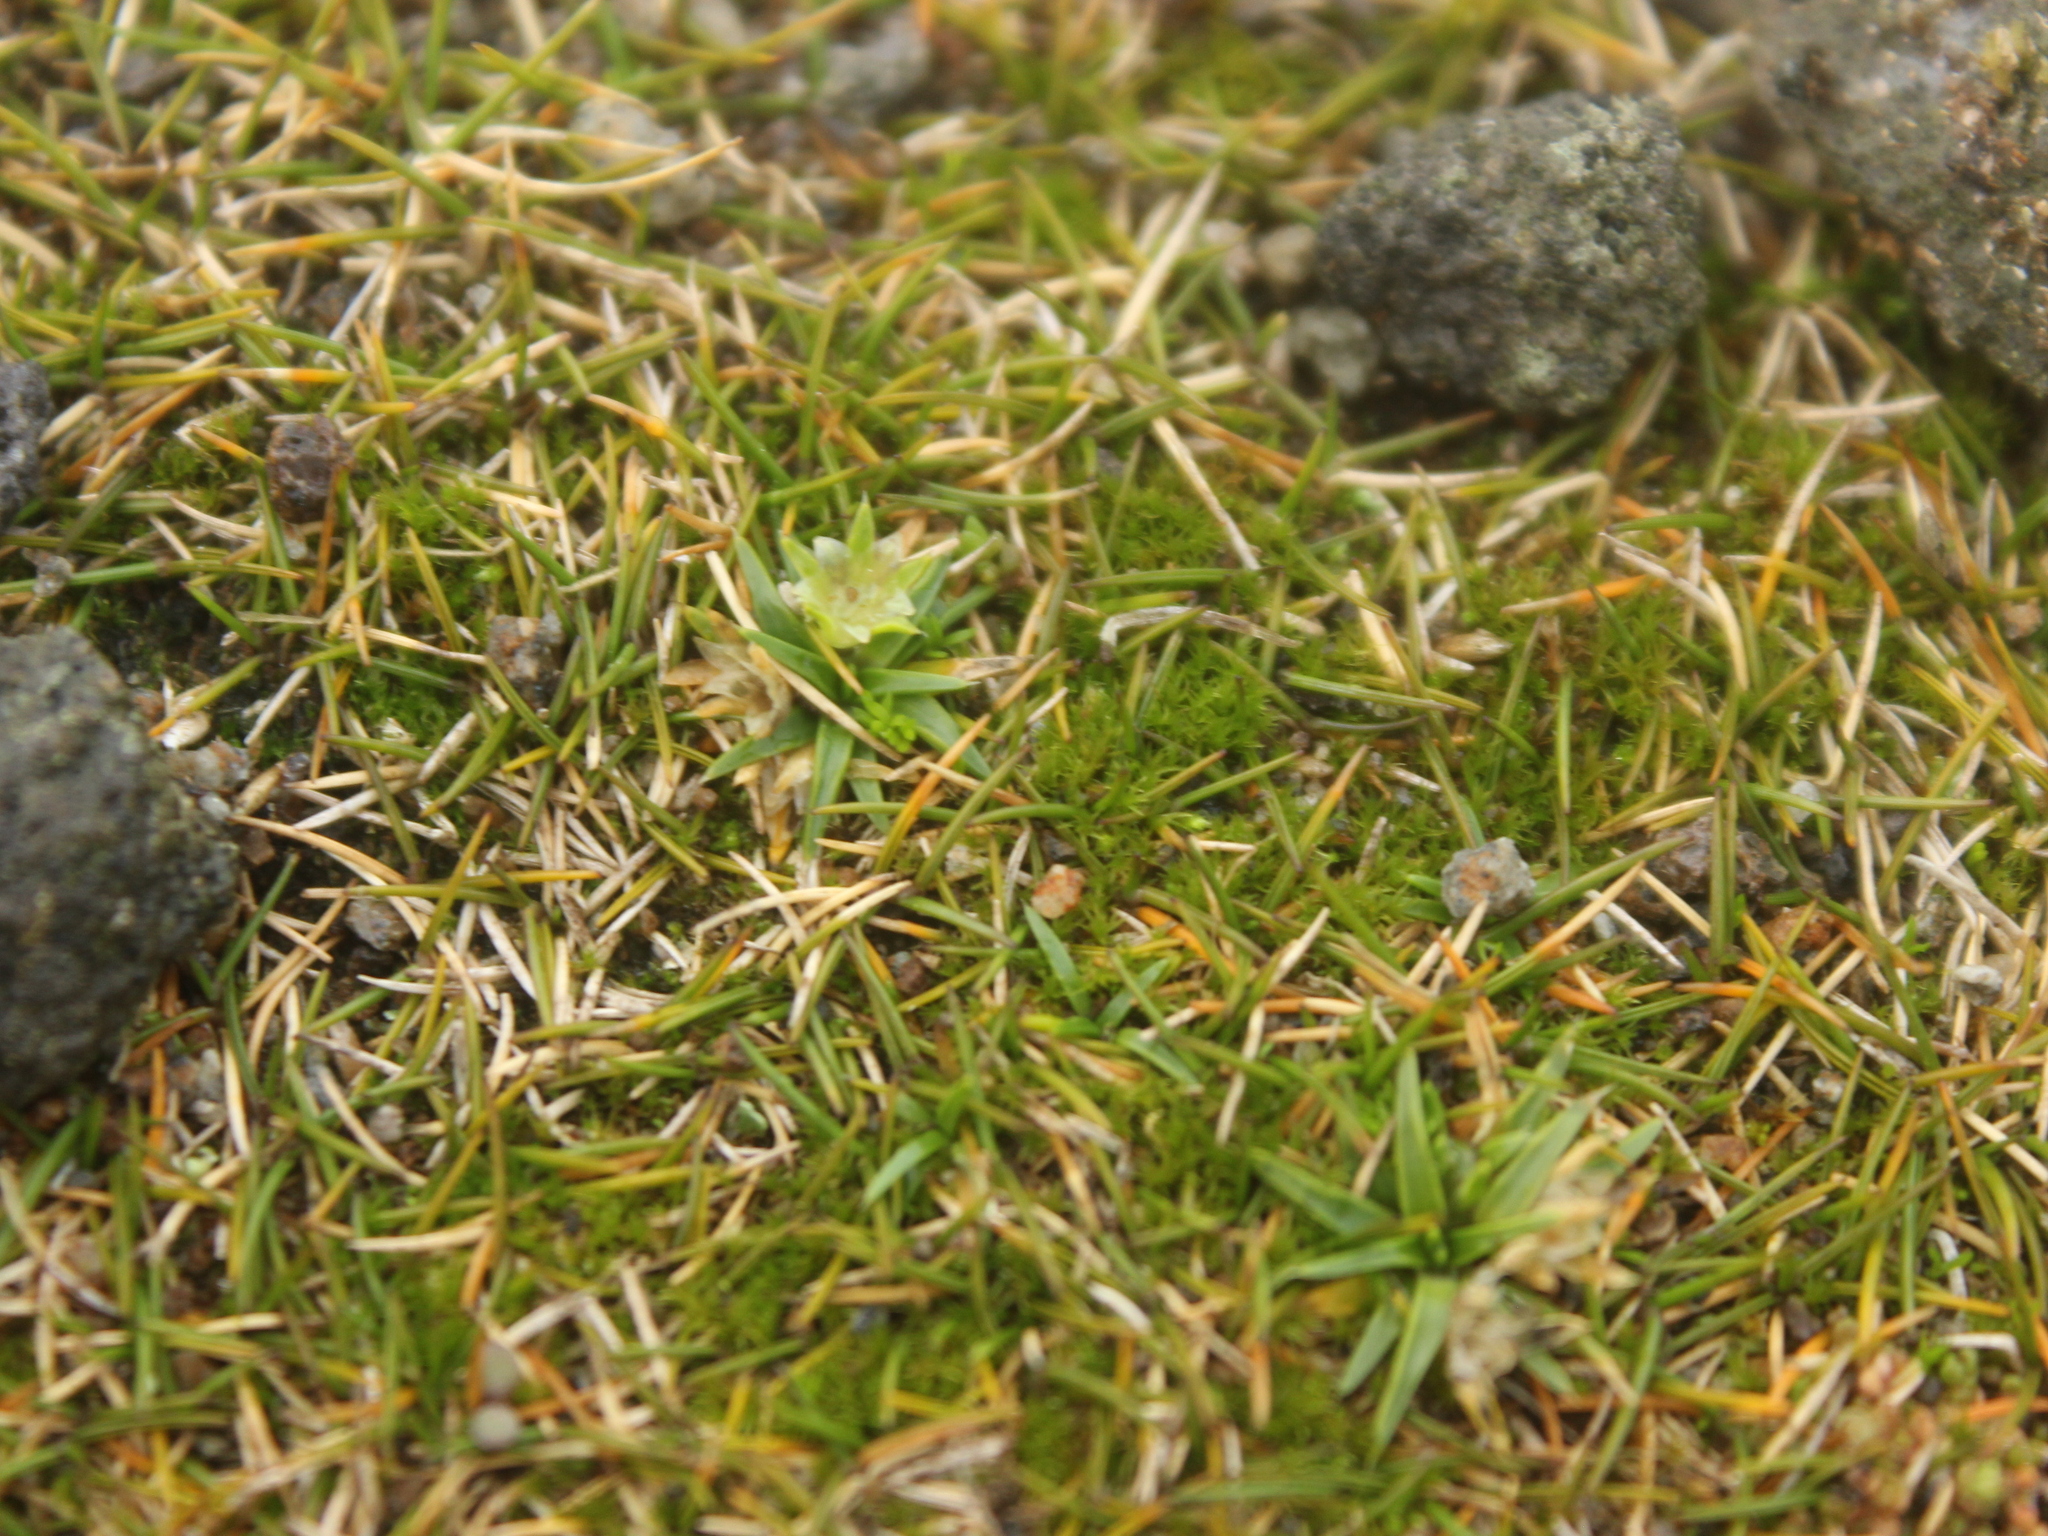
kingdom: Plantae
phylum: Tracheophyta
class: Magnoliopsida
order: Caryophyllales
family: Caryophyllaceae
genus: Colobanthus
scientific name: Colobanthus muelleri
